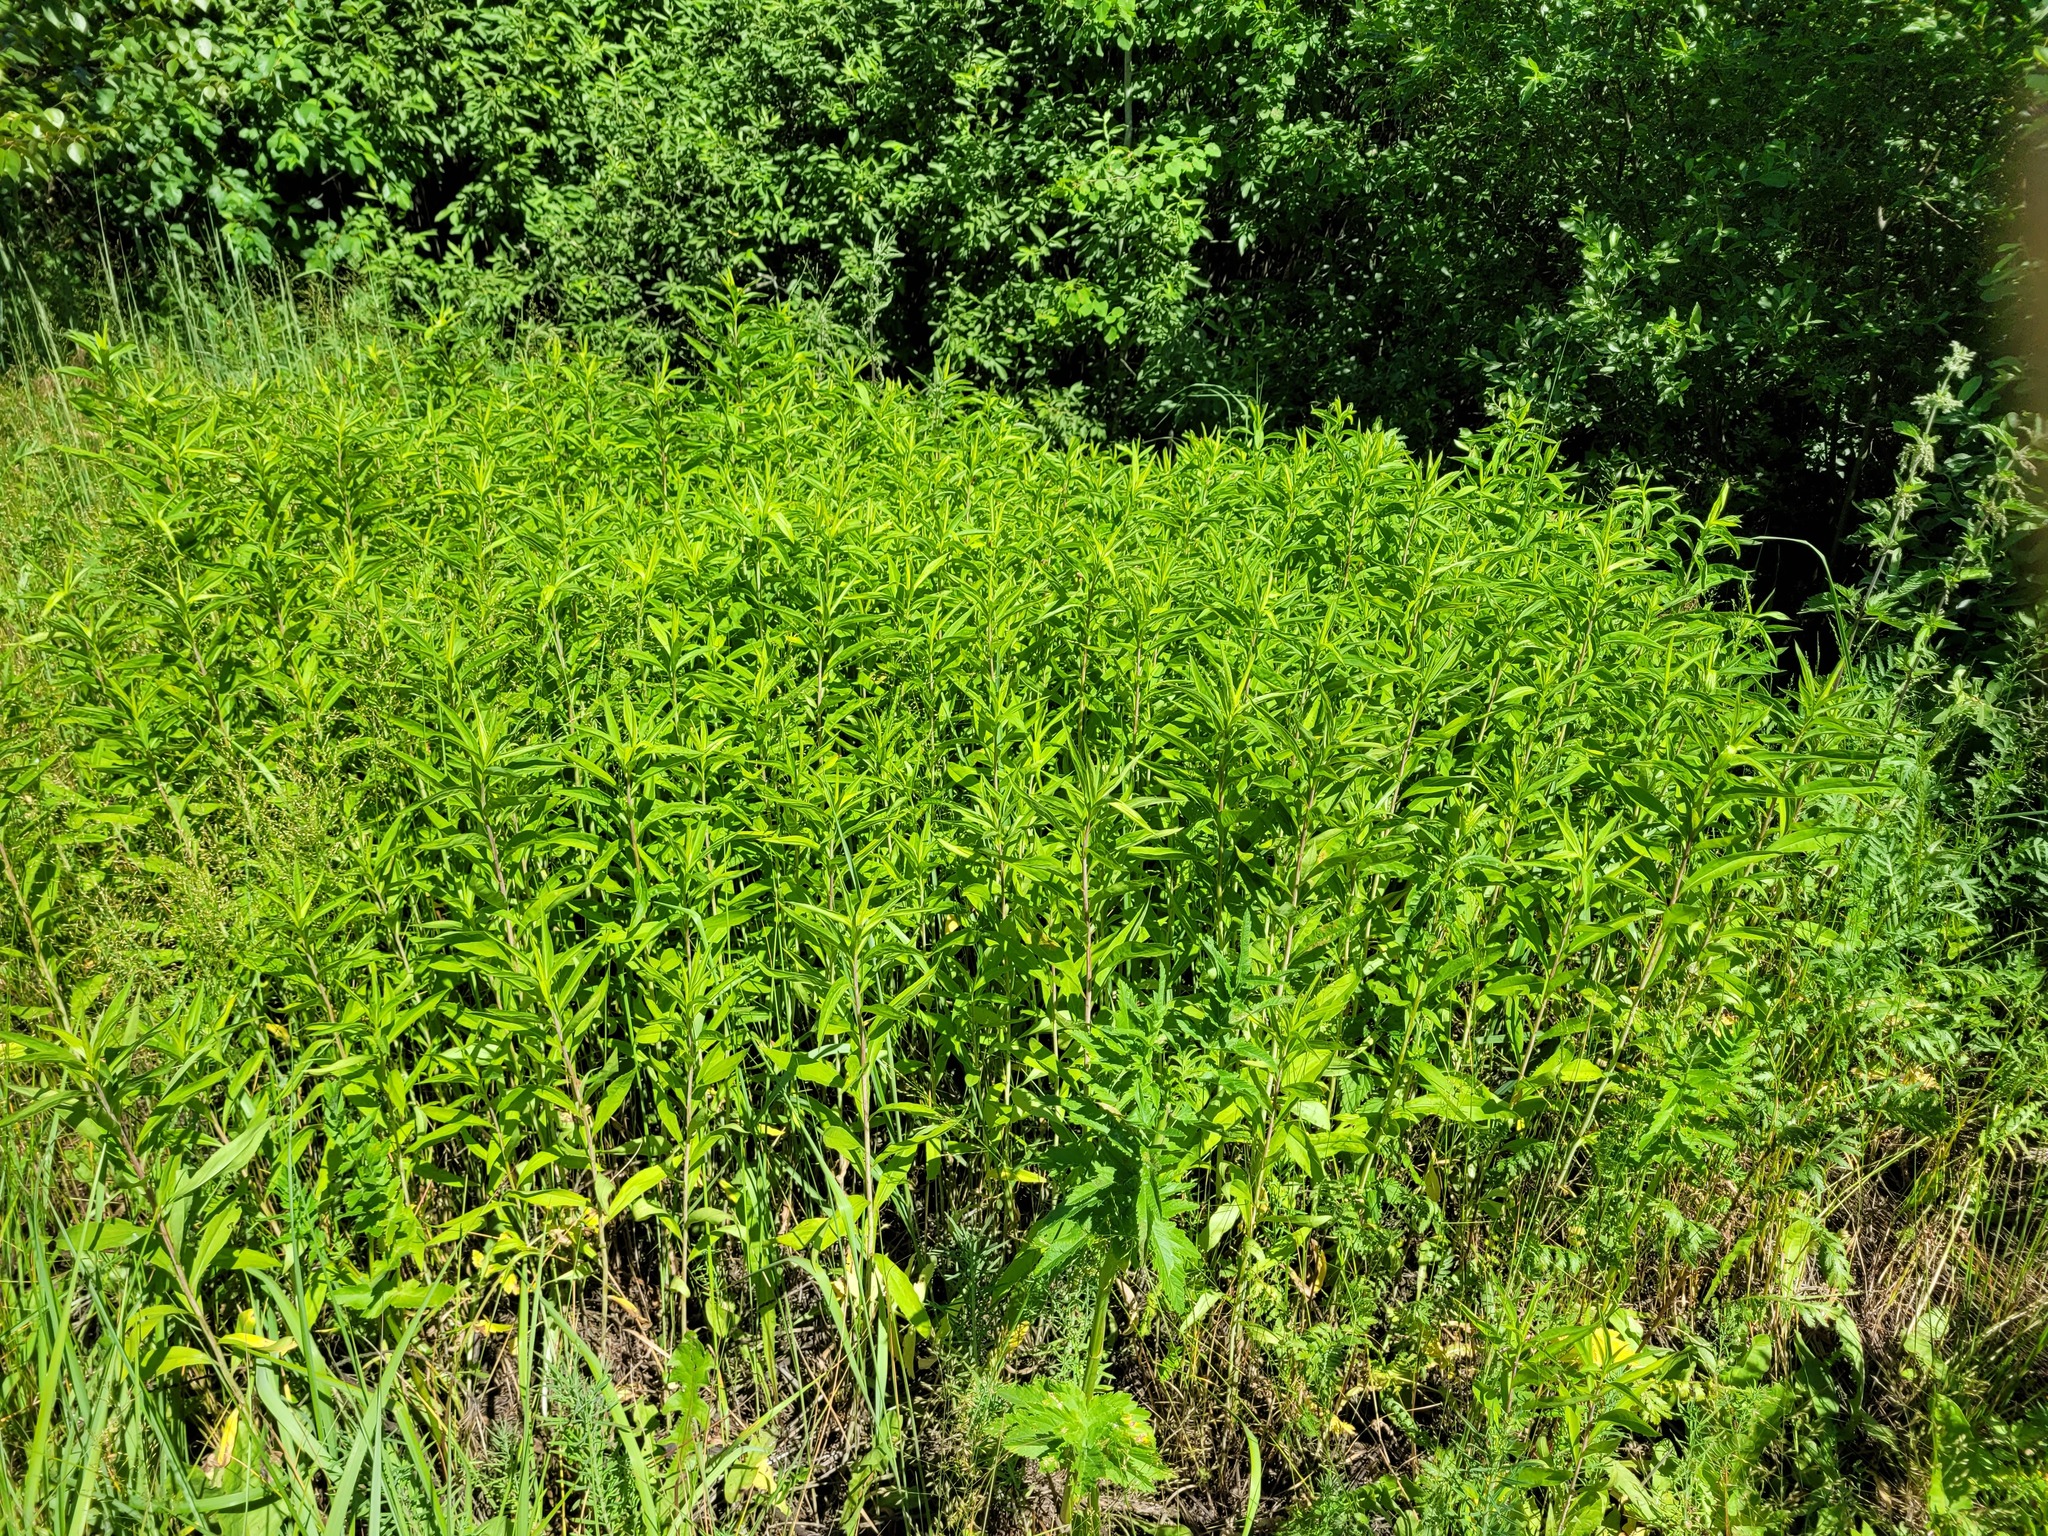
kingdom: Plantae
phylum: Tracheophyta
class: Magnoliopsida
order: Asterales
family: Asteraceae
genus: Solidago
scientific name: Solidago gigantea
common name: Giant goldenrod
